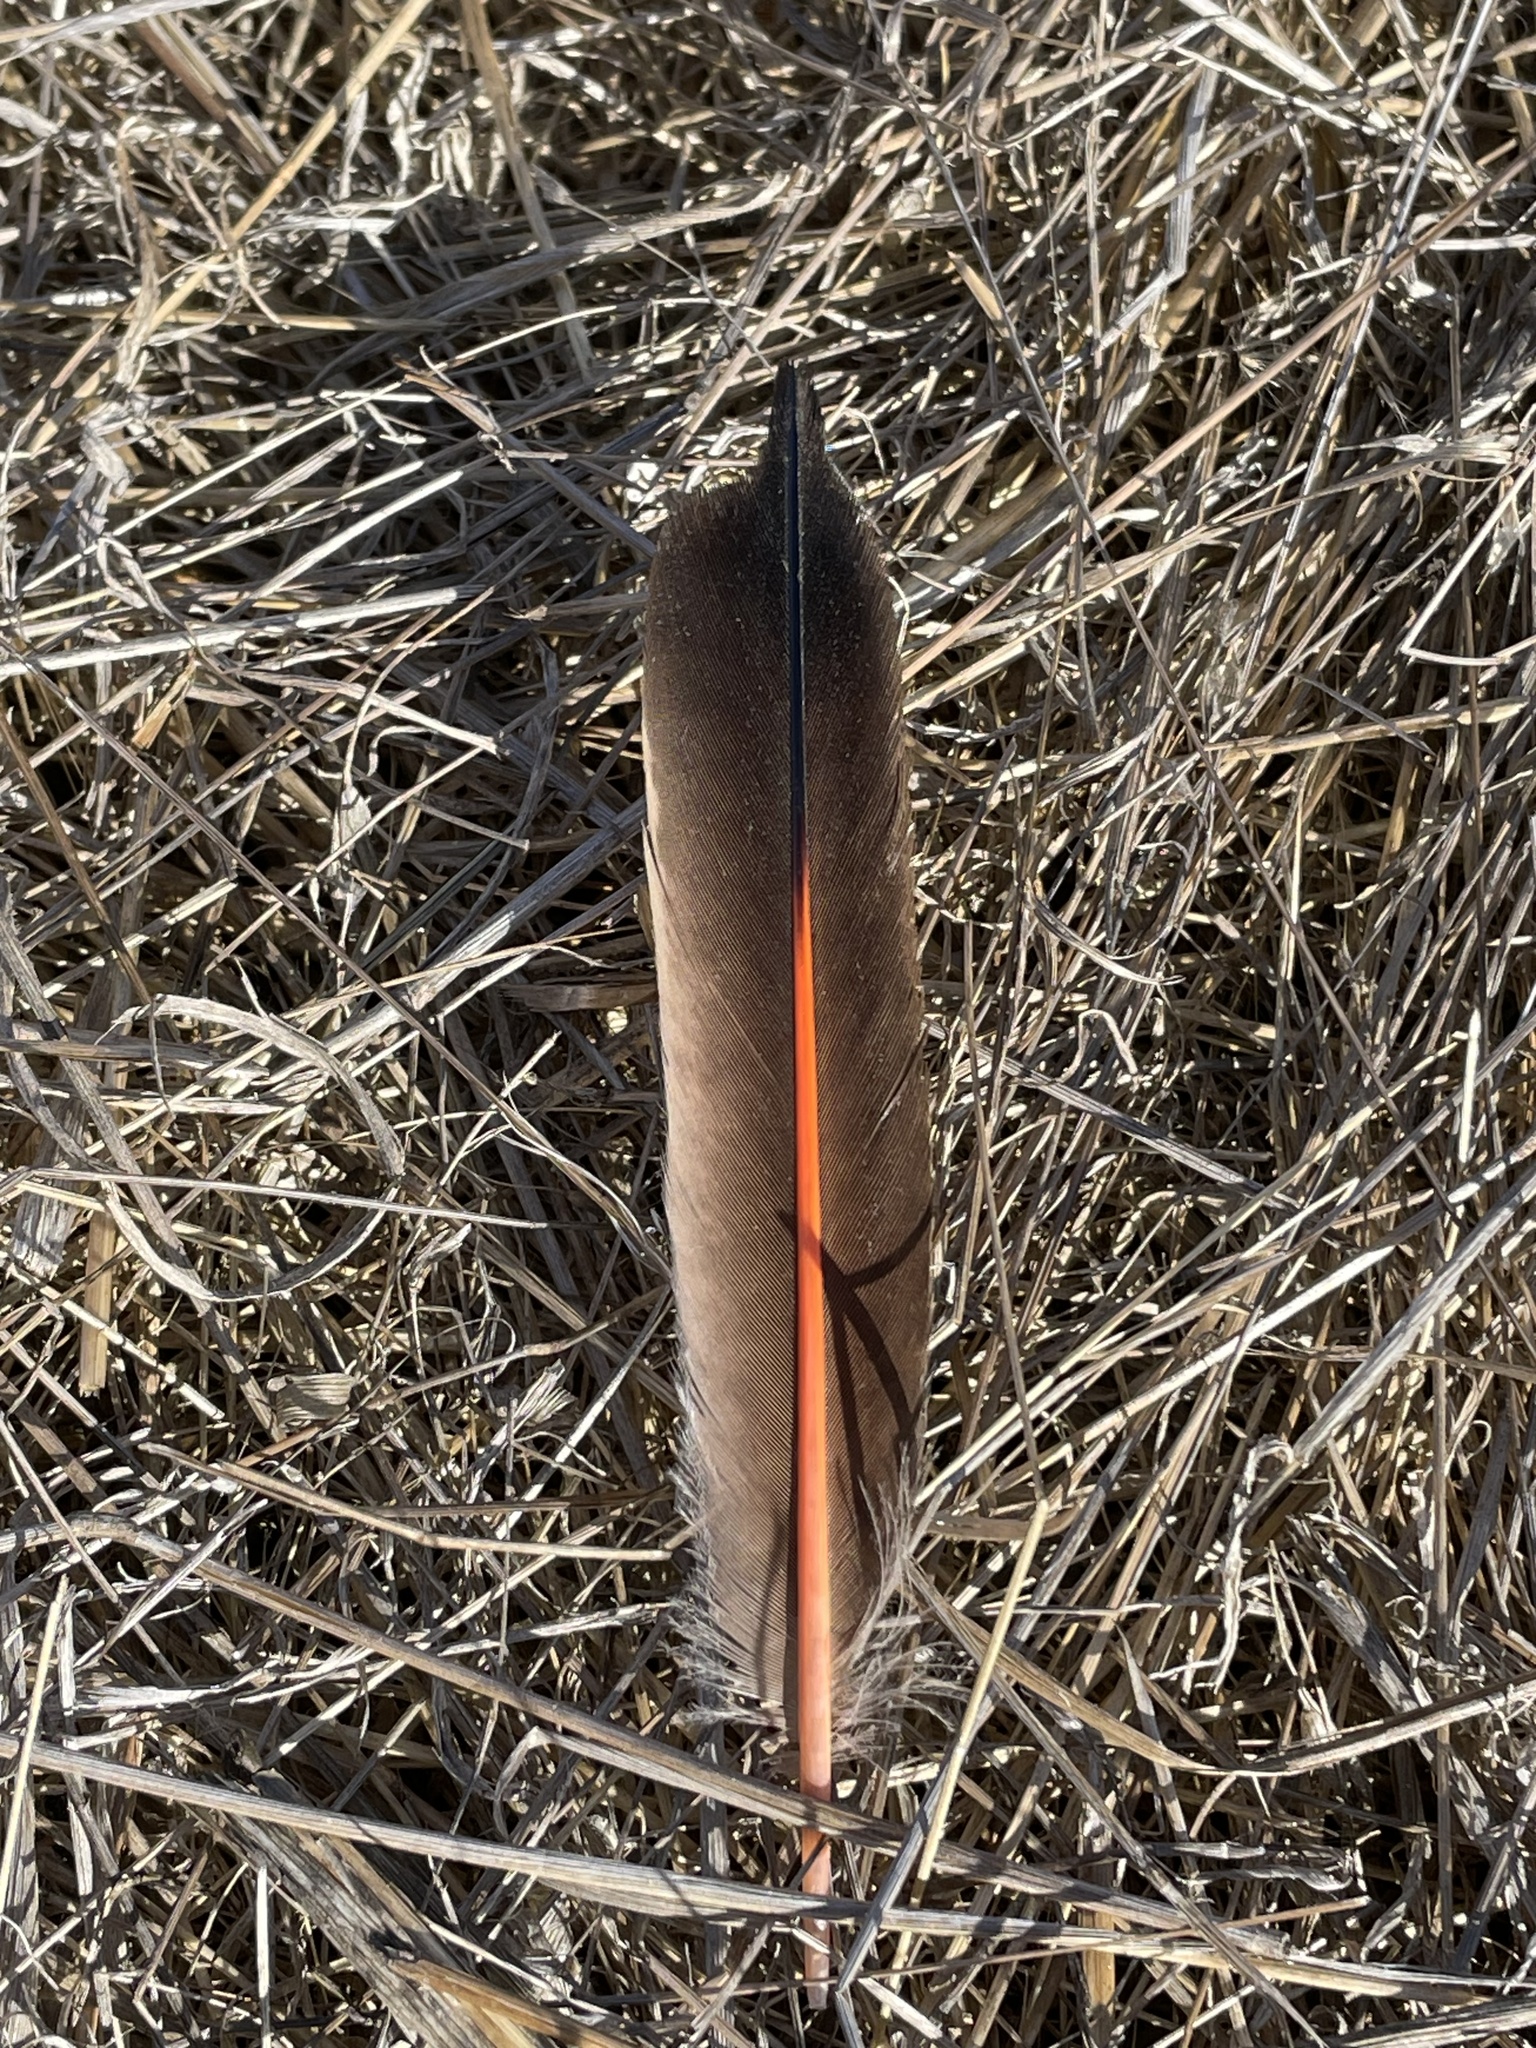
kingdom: Animalia
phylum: Chordata
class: Aves
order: Piciformes
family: Picidae
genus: Colaptes
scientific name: Colaptes auratus
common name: Northern flicker
